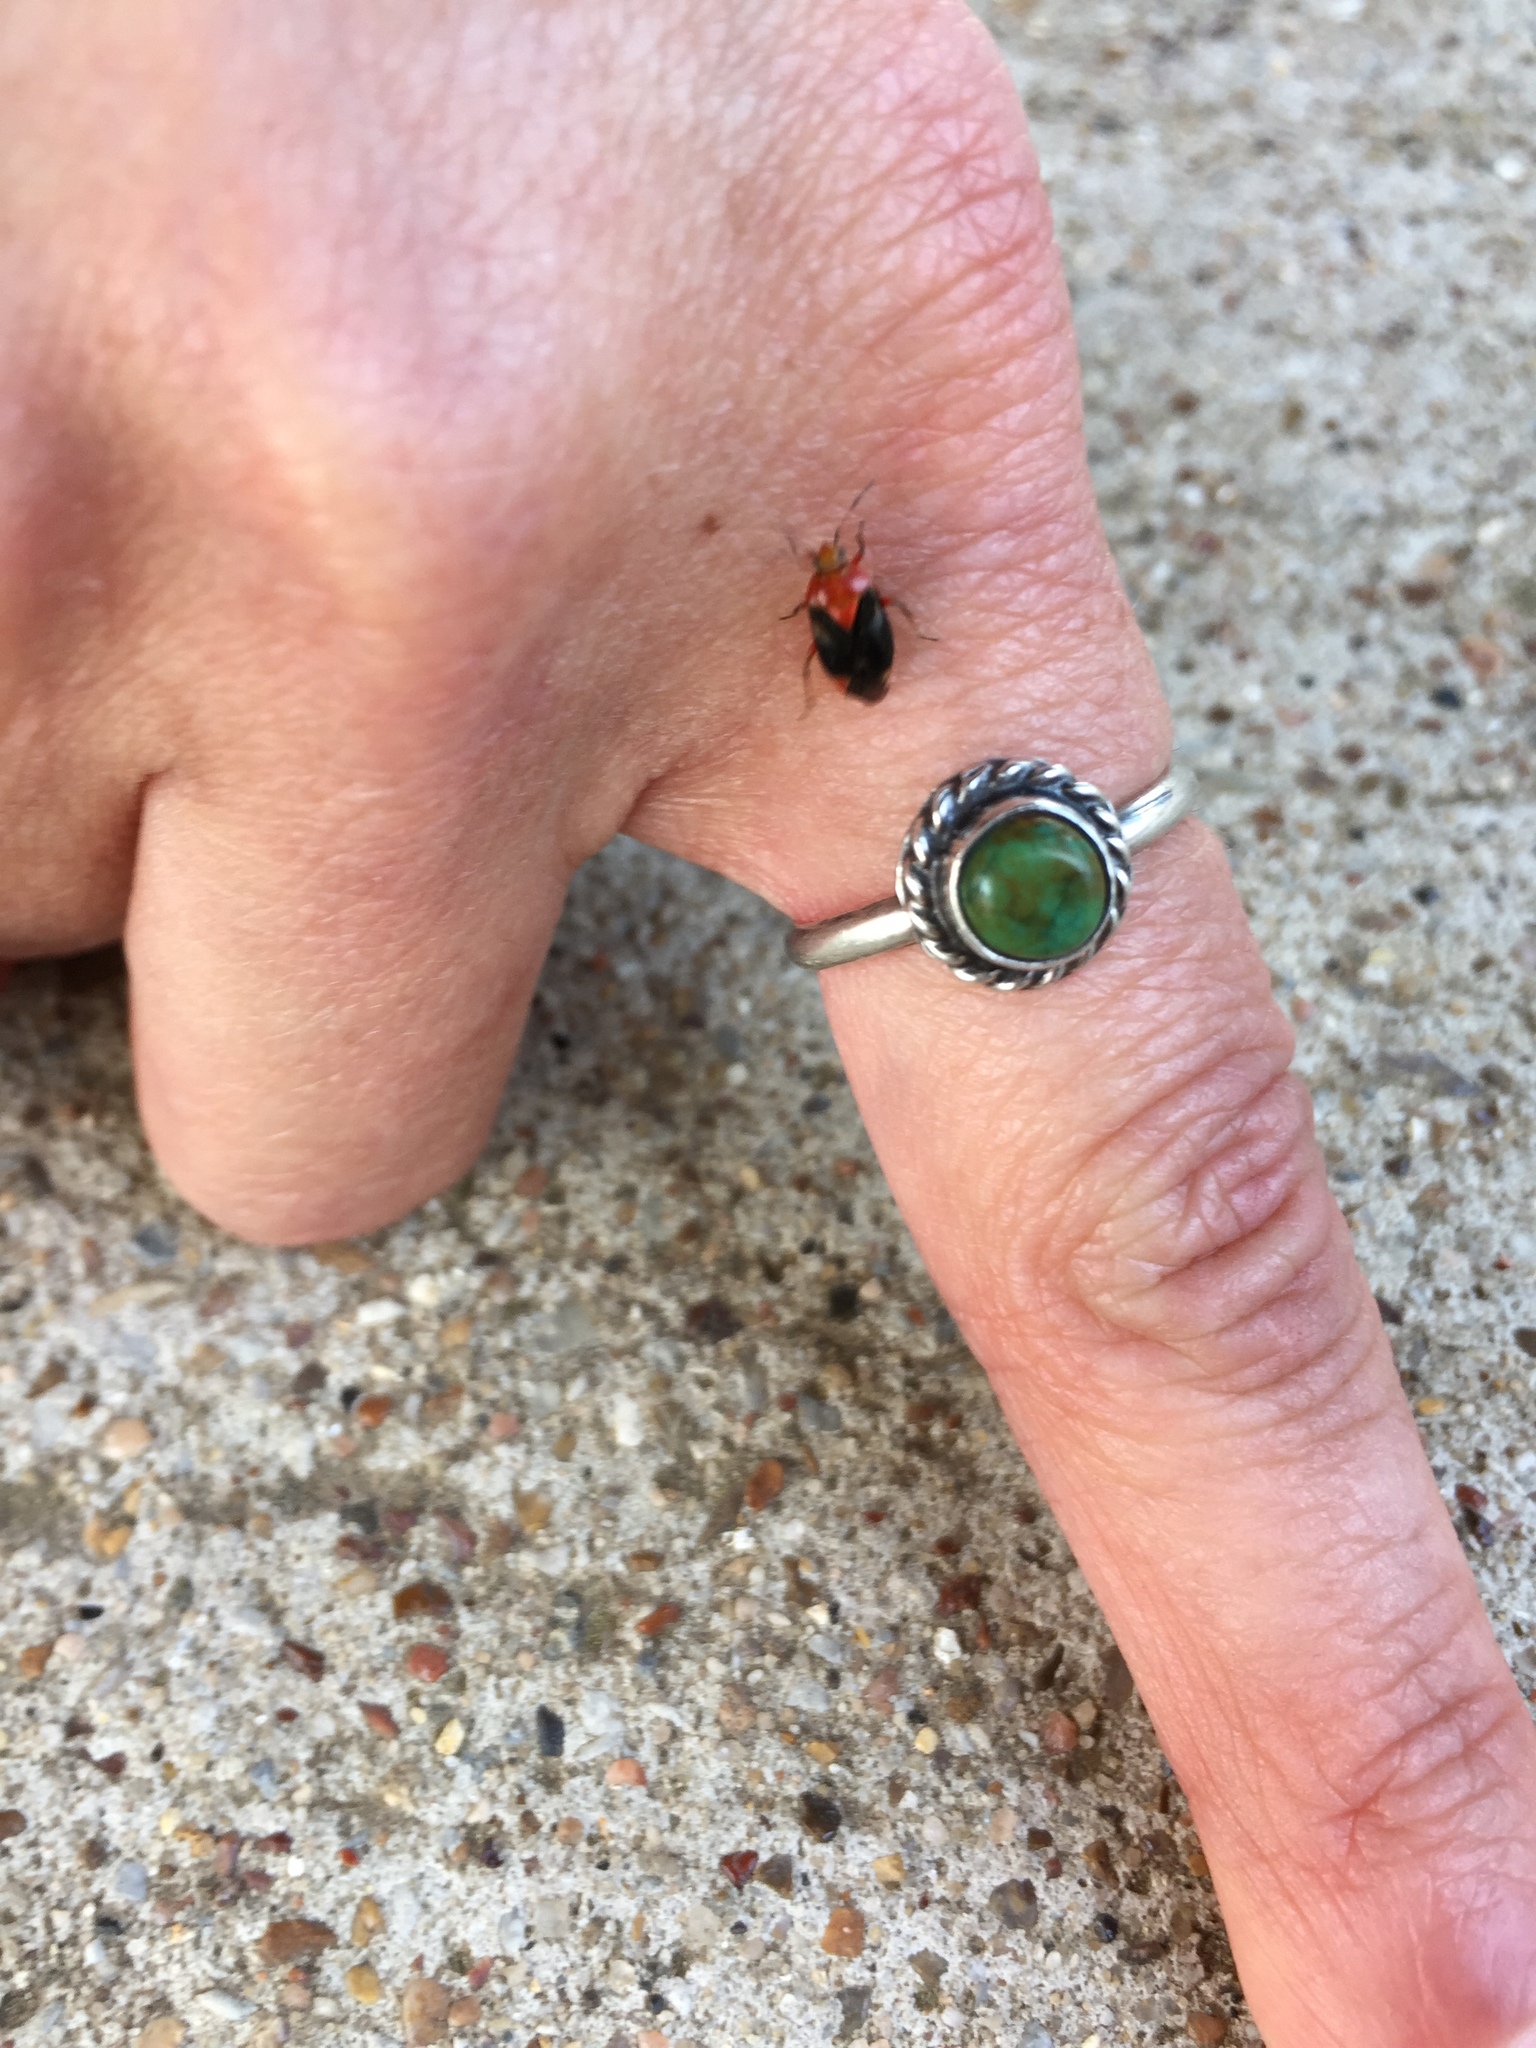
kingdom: Animalia
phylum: Arthropoda
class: Insecta
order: Hemiptera
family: Miridae
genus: Neocapsus
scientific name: Neocapsus cuneatus
